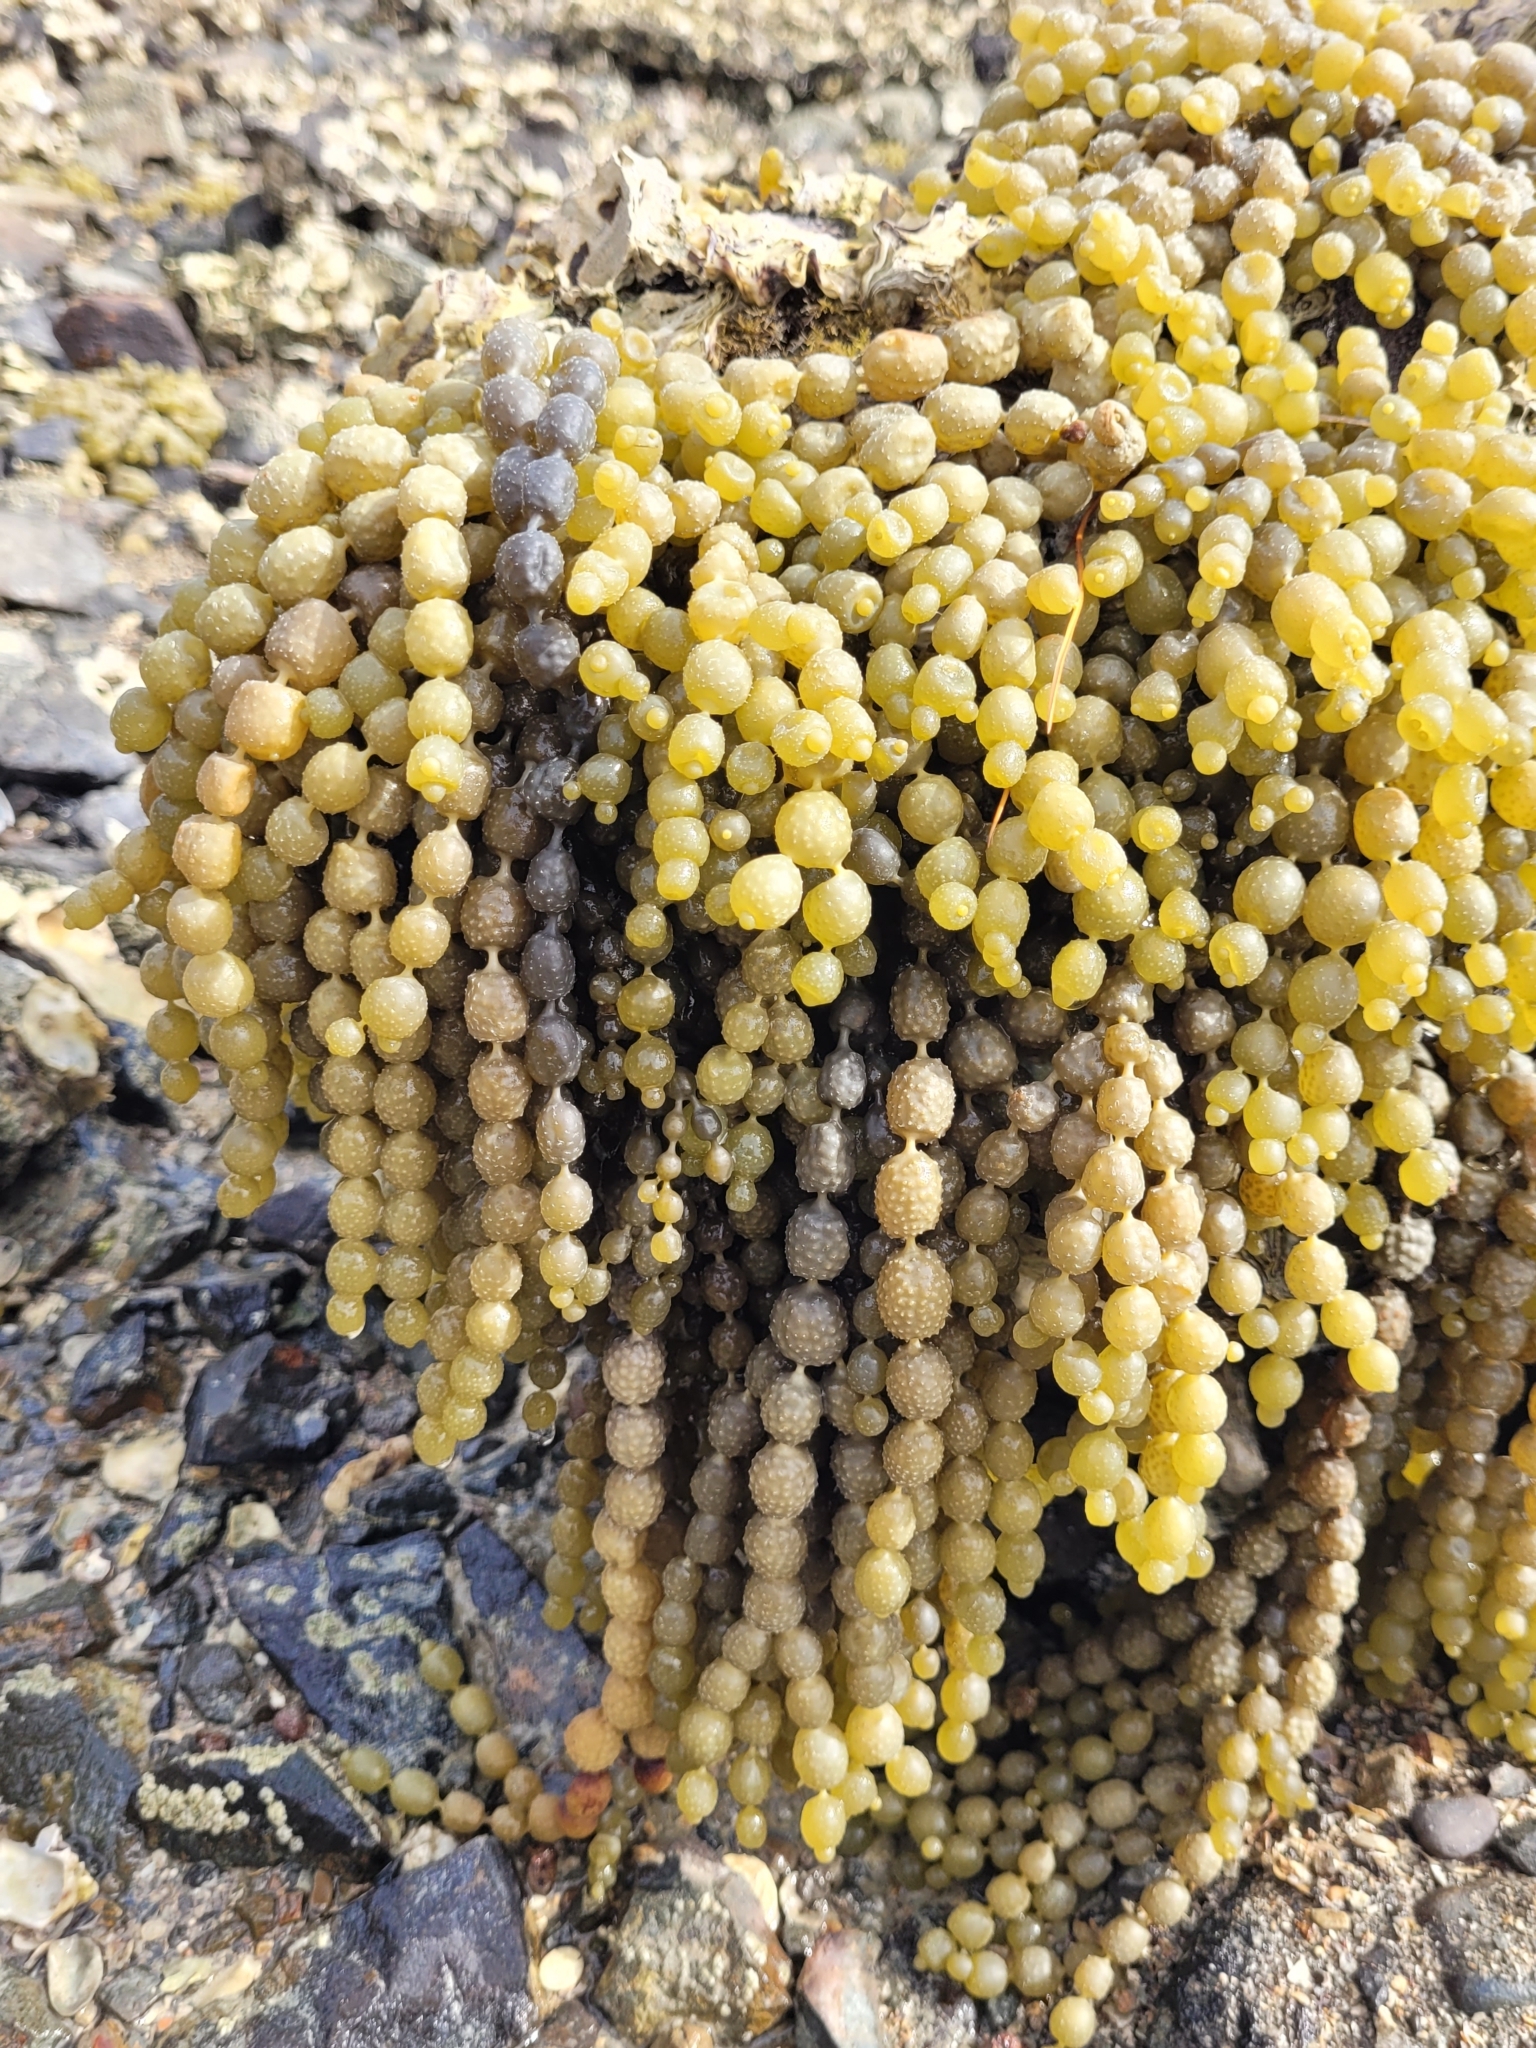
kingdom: Chromista
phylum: Ochrophyta
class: Phaeophyceae
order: Fucales
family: Hormosiraceae
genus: Hormosira
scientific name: Hormosira banksii
